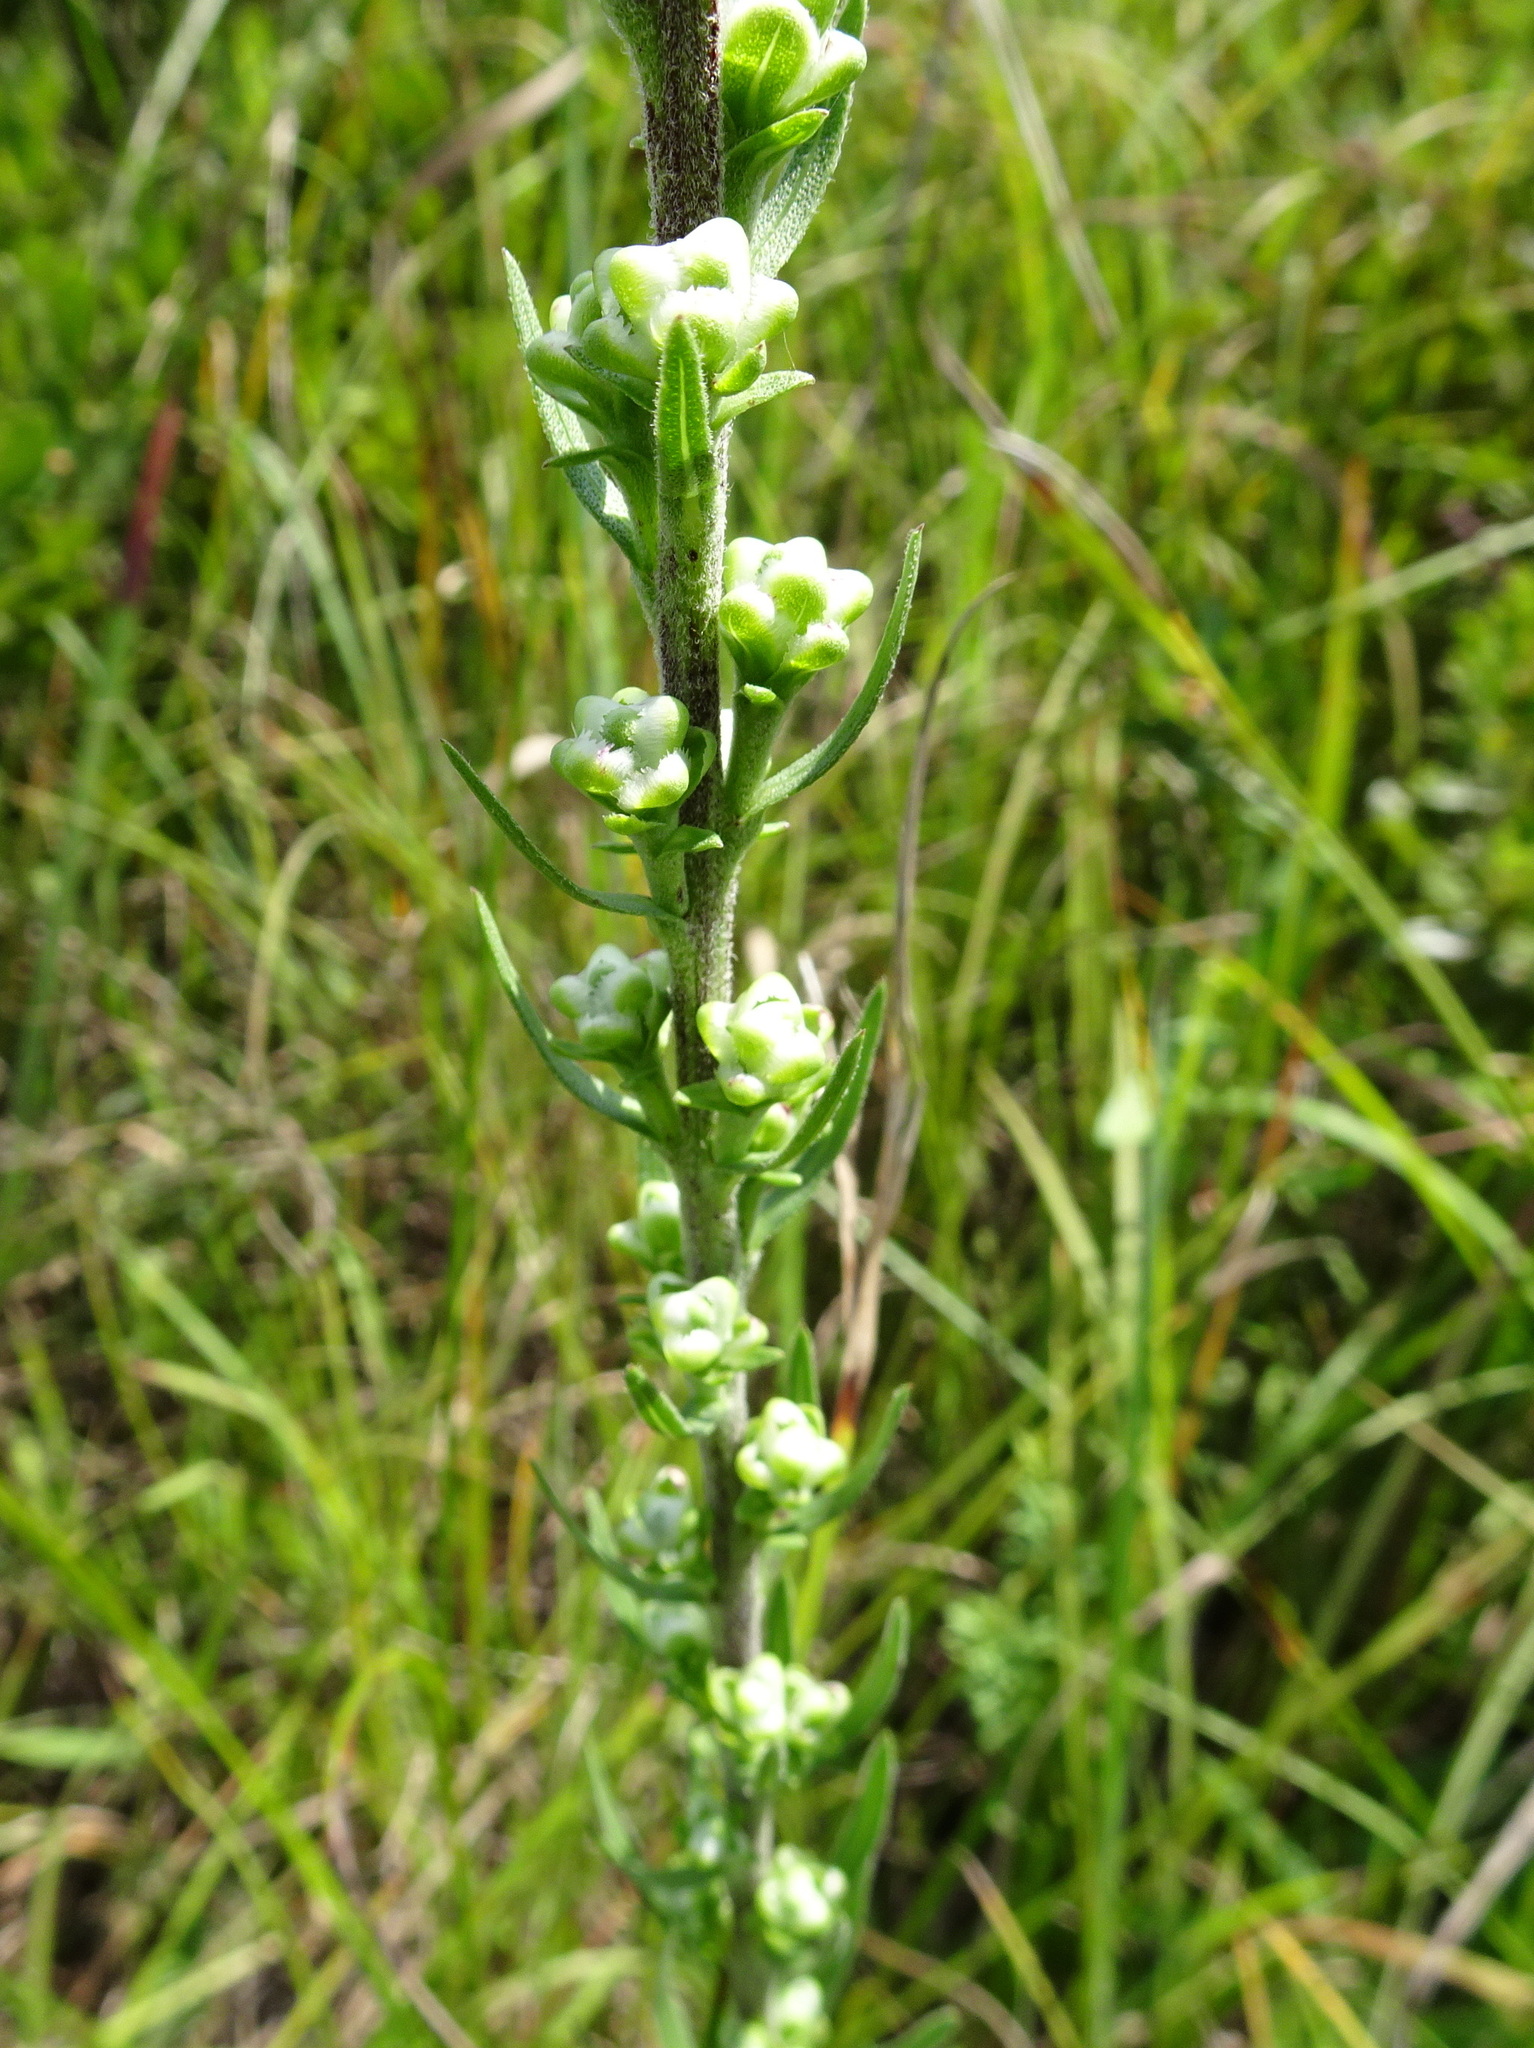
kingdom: Plantae
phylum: Tracheophyta
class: Magnoliopsida
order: Asterales
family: Asteraceae
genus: Liatris
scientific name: Liatris aspera
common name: Lacerate blazing-star
